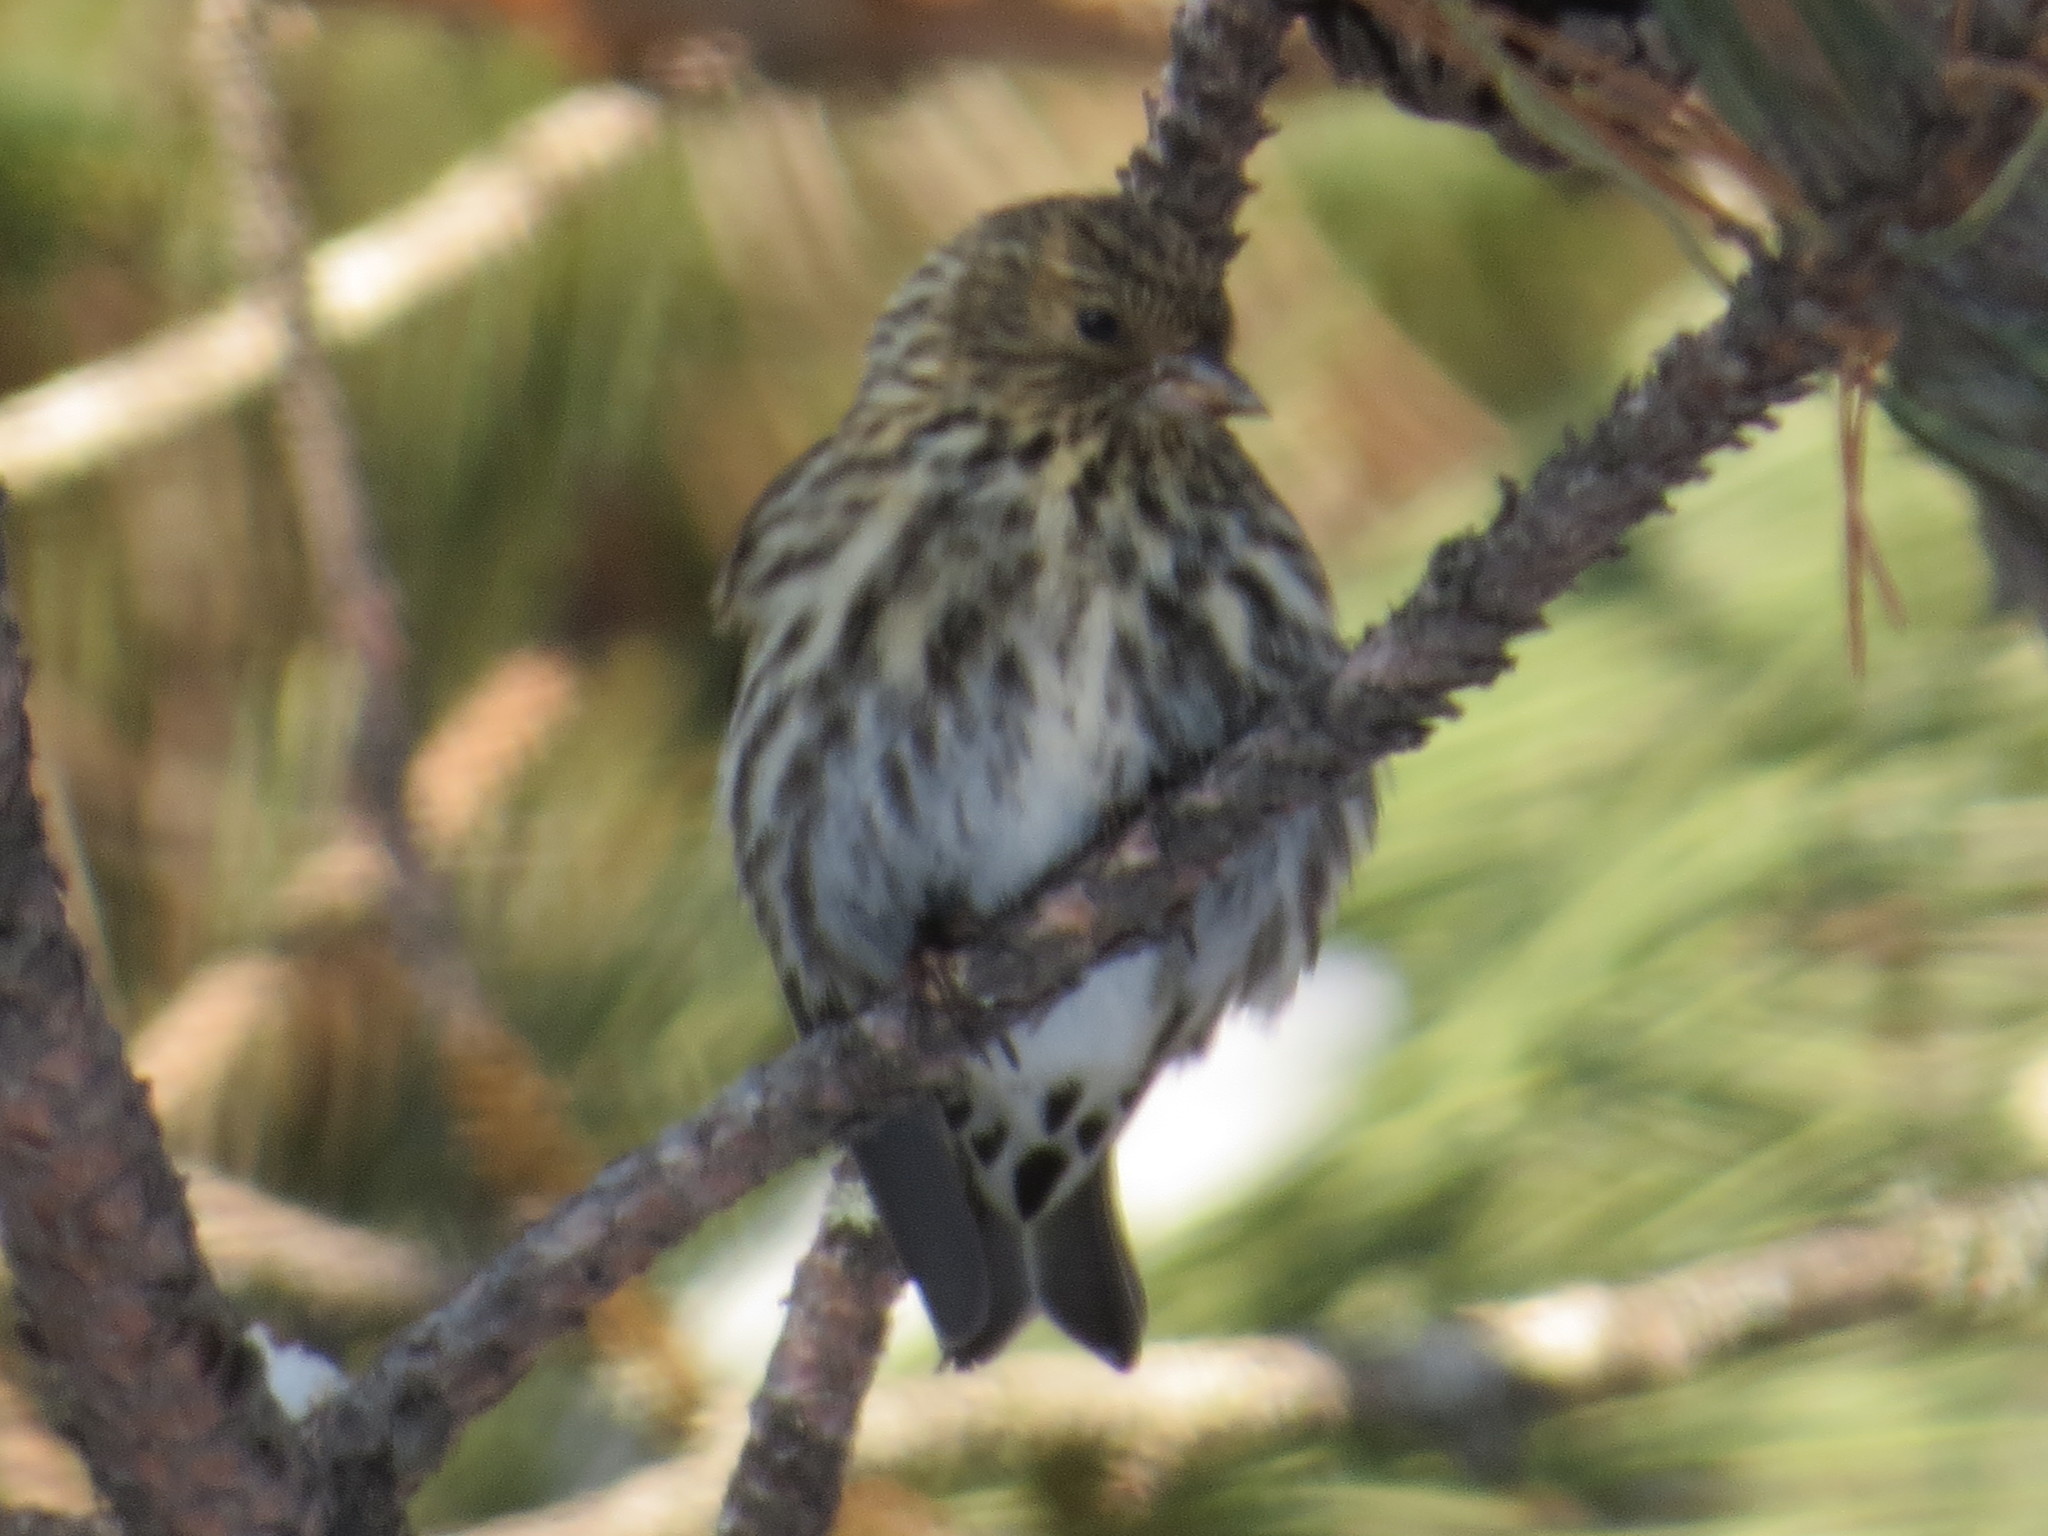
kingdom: Animalia
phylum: Chordata
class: Aves
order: Passeriformes
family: Fringillidae
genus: Spinus
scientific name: Spinus pinus
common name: Pine siskin
